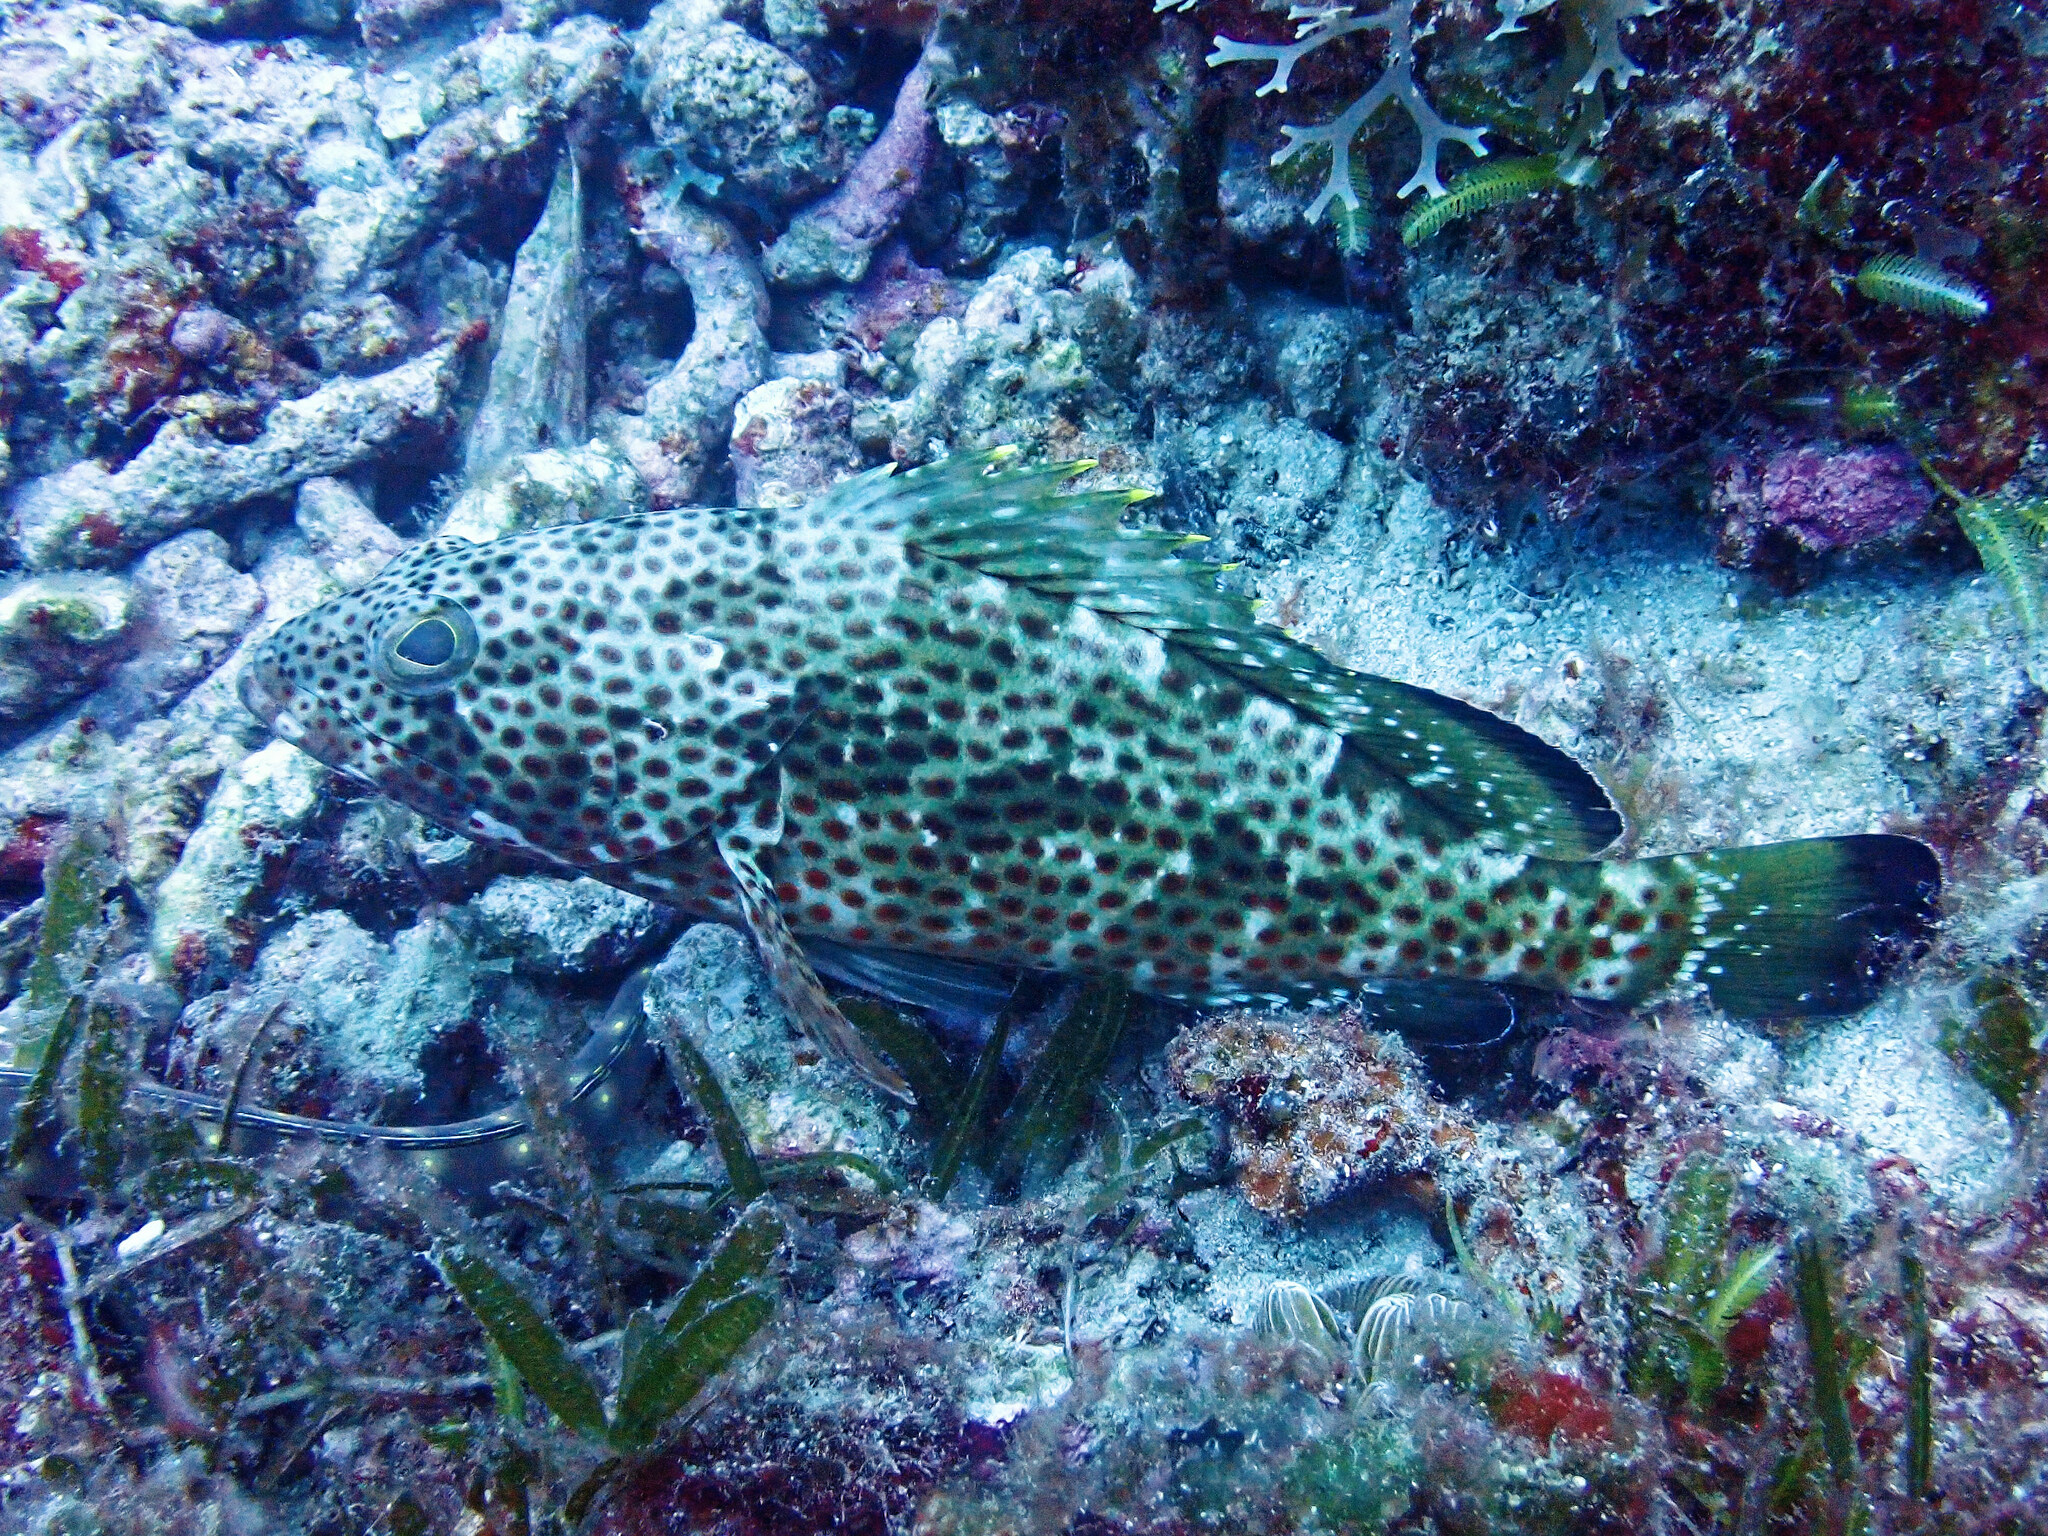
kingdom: Animalia
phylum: Chordata
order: Perciformes
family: Serranidae
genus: Epinephelus
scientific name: Epinephelus guttatus
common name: Red hind
